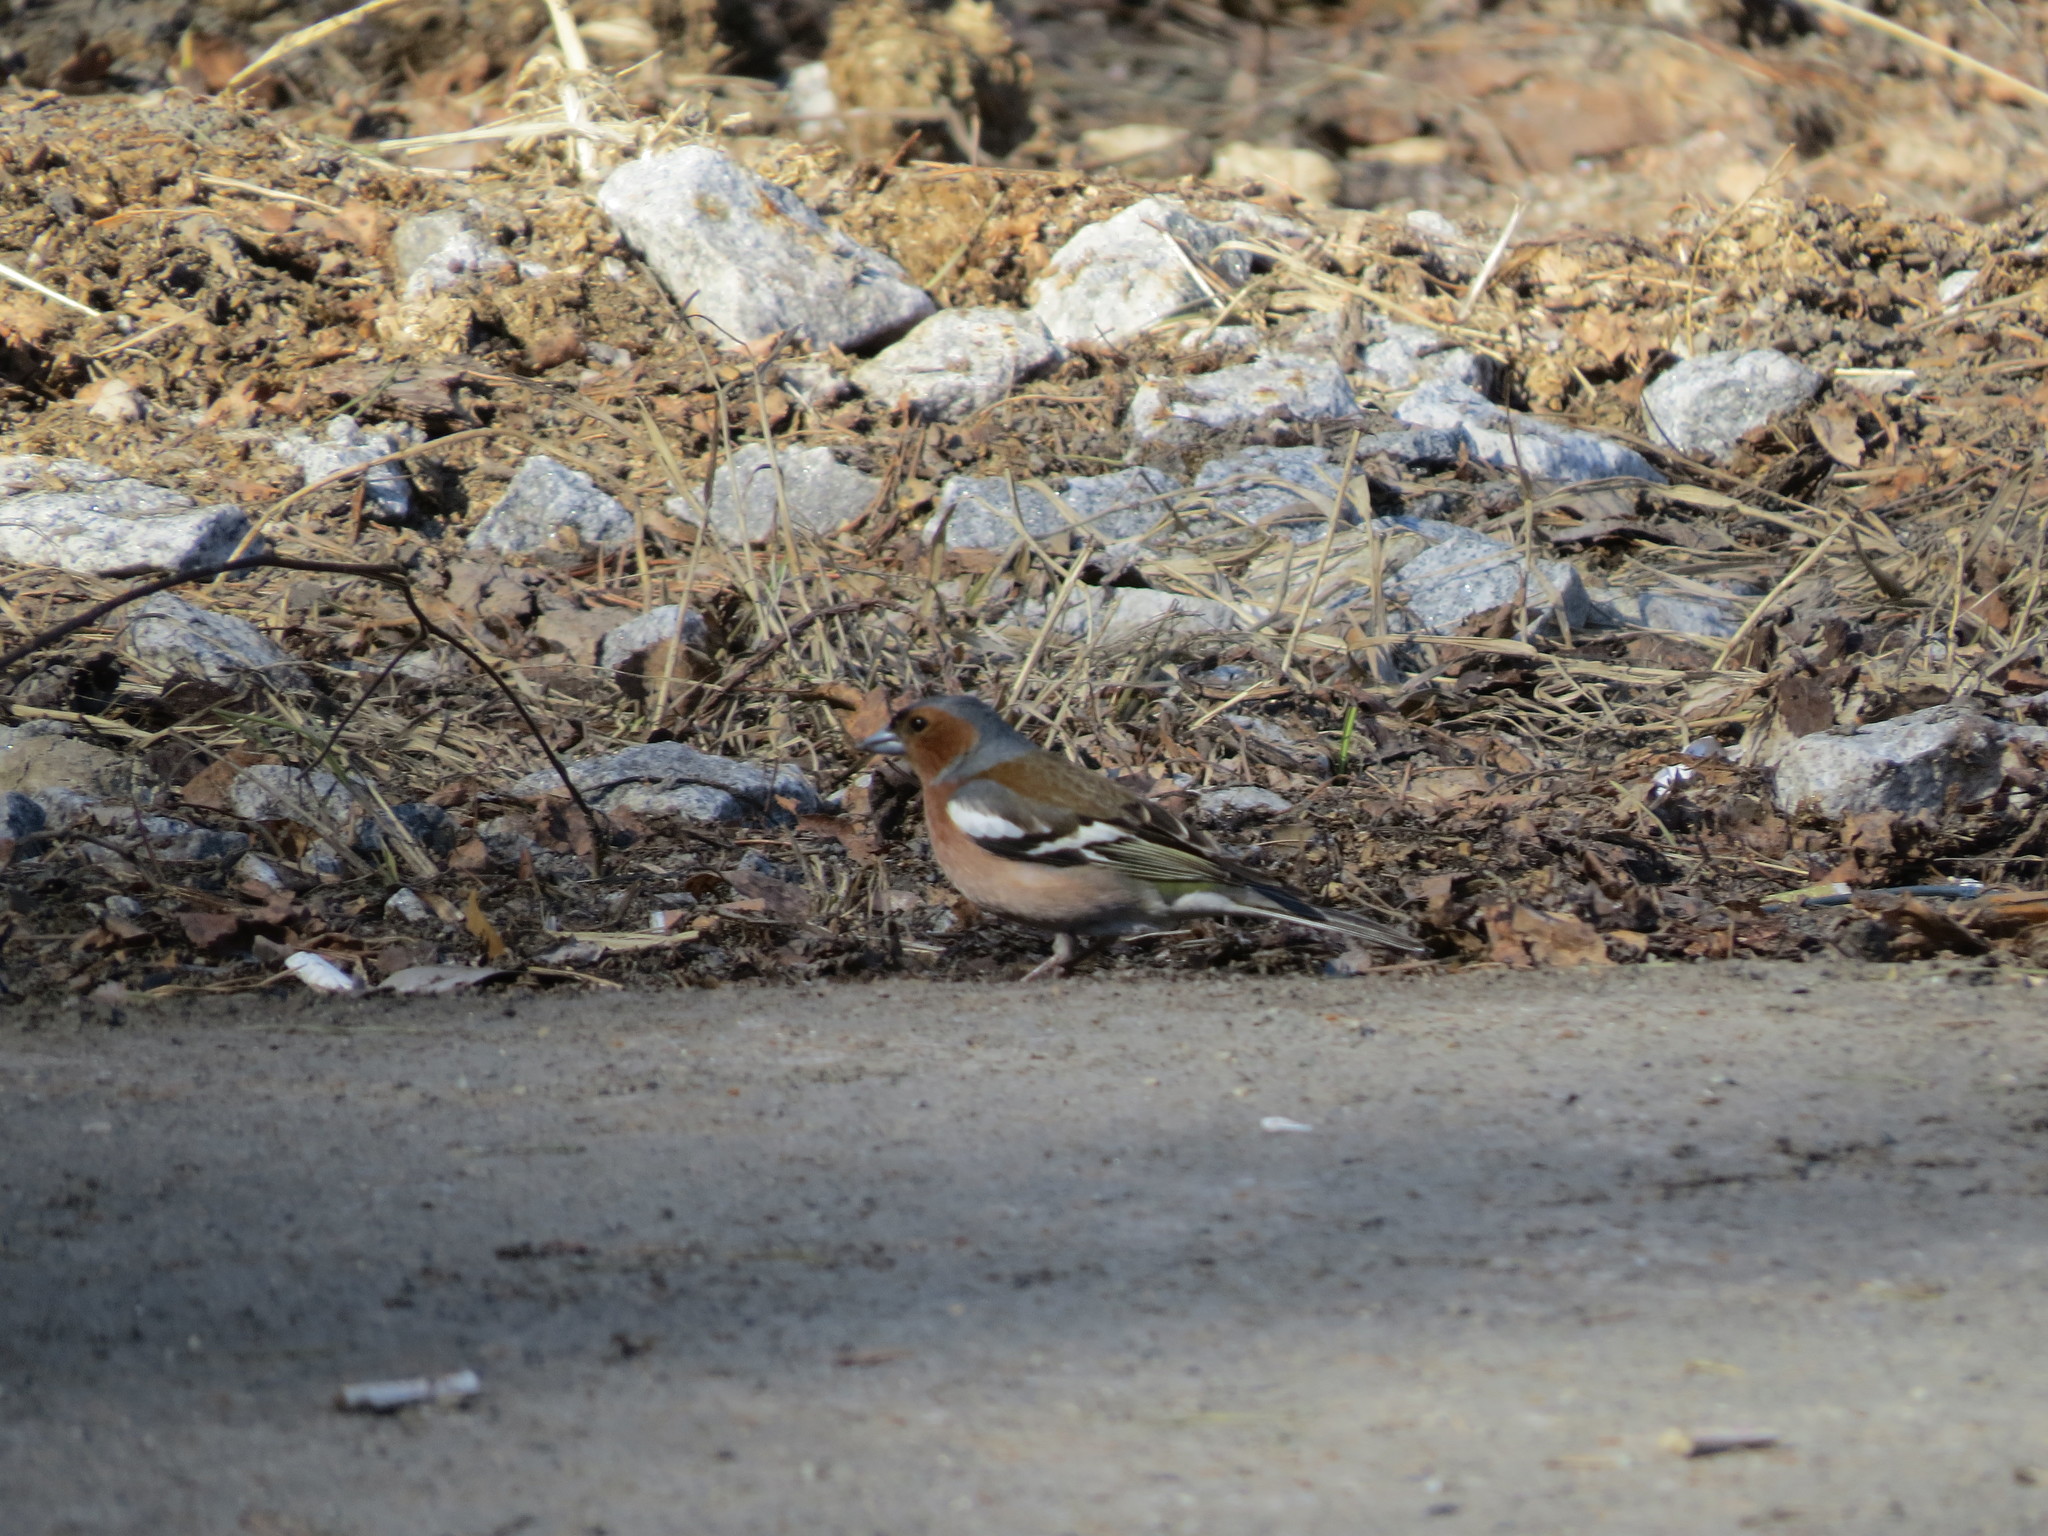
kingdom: Animalia
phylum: Chordata
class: Aves
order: Passeriformes
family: Fringillidae
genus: Fringilla
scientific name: Fringilla coelebs
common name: Common chaffinch
